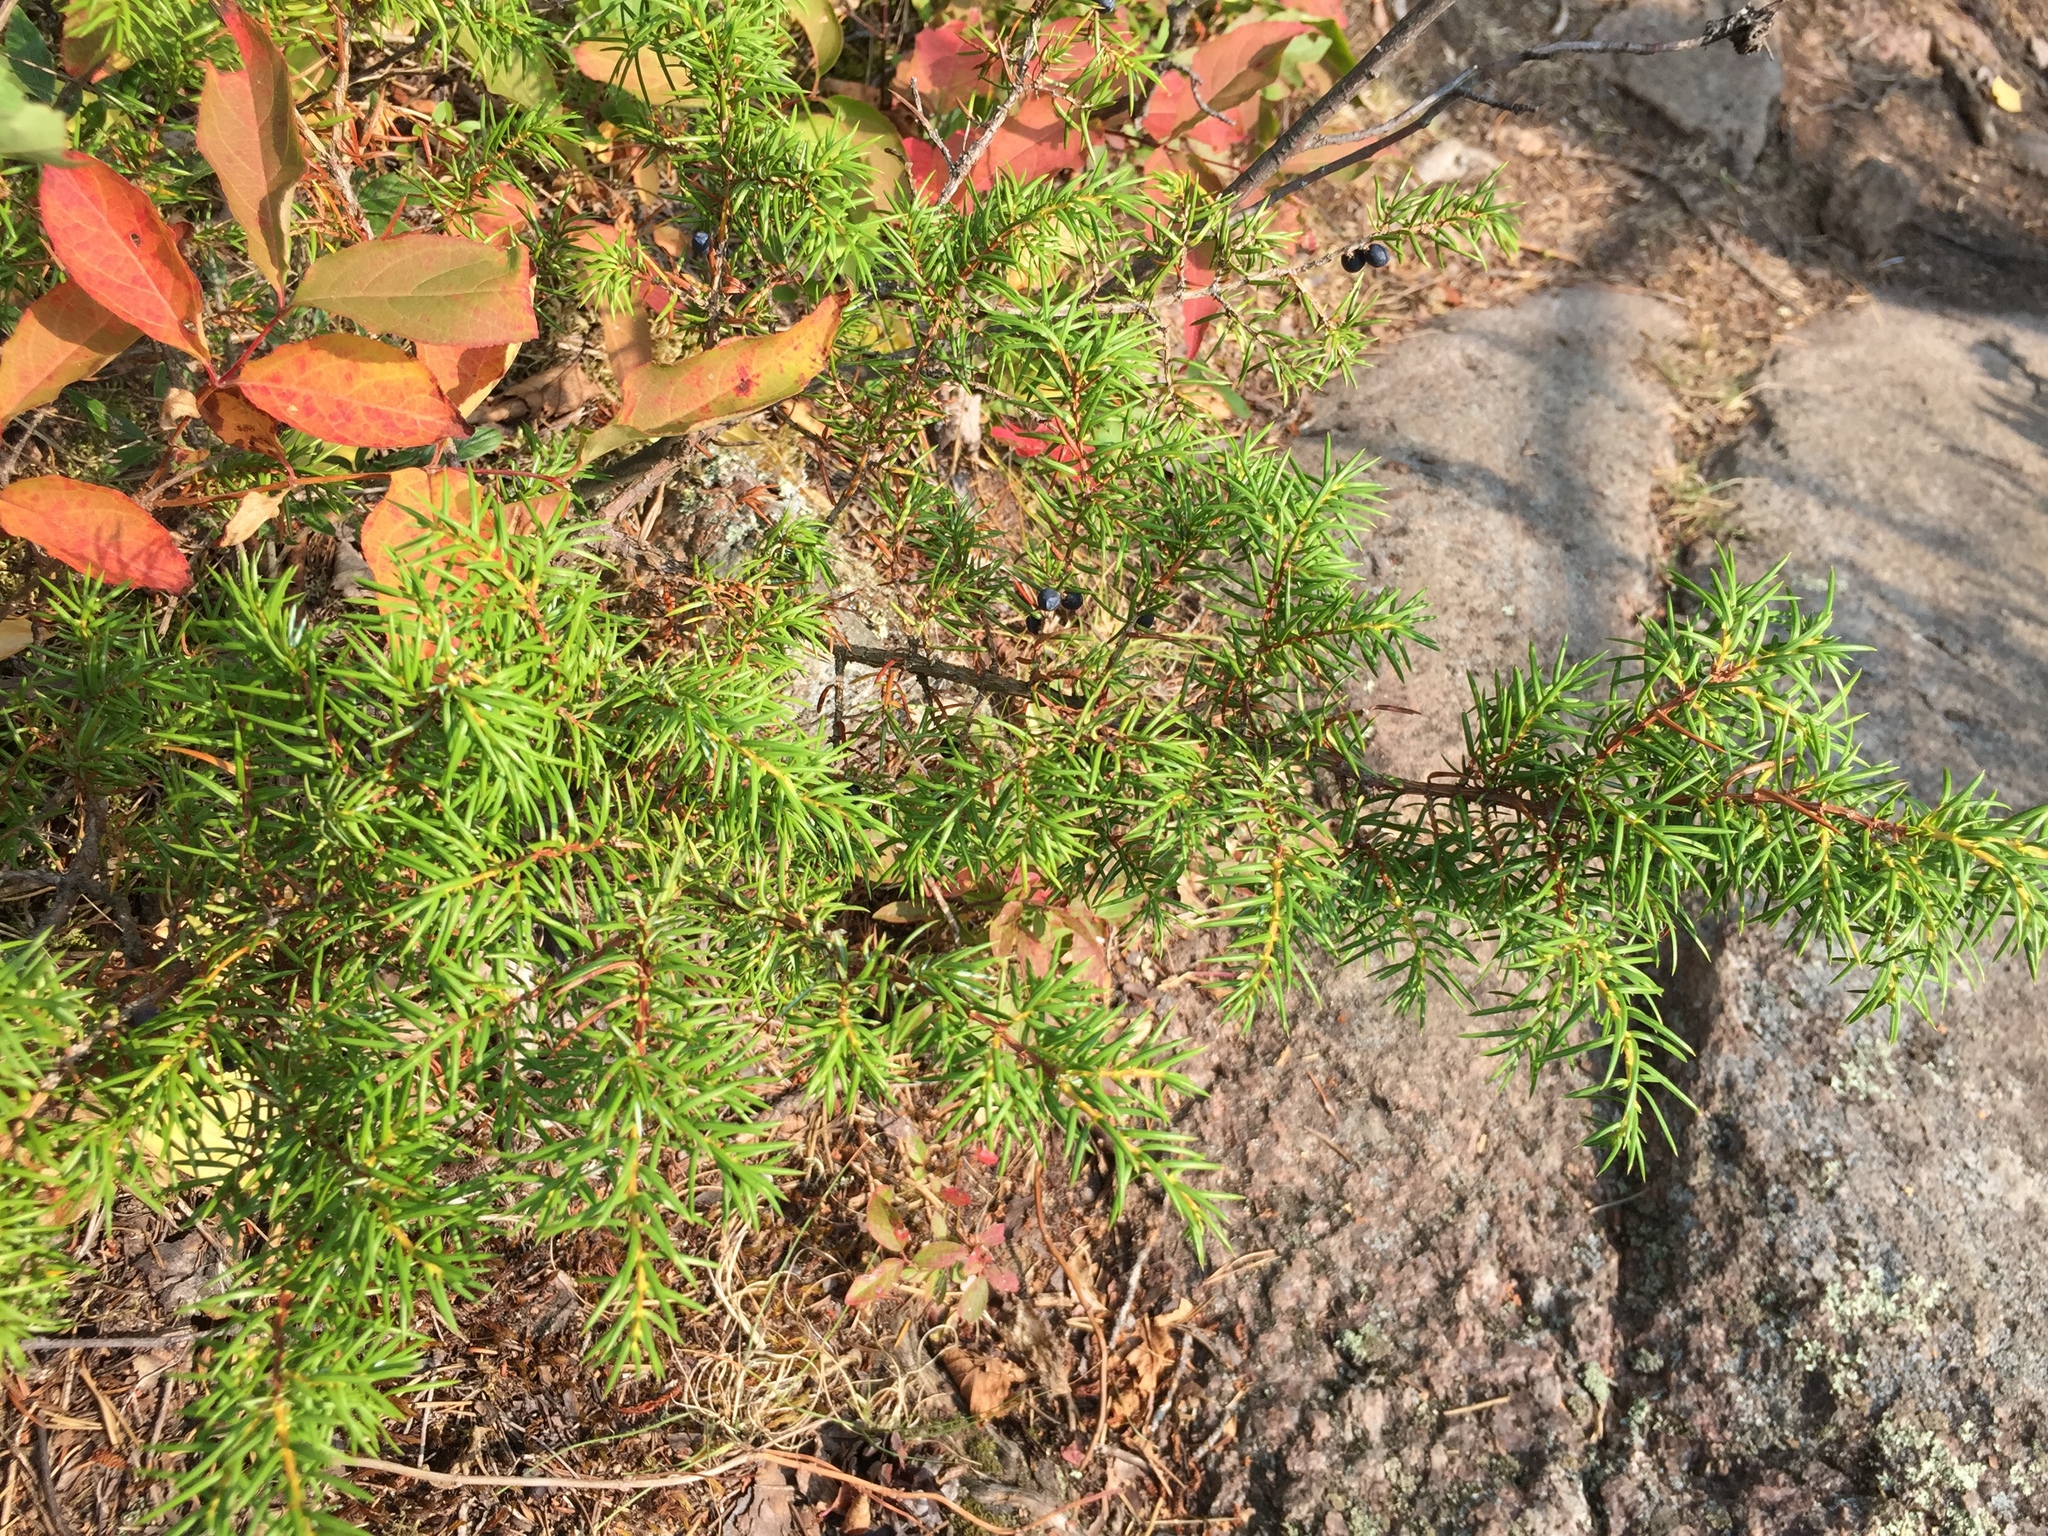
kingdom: Plantae
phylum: Tracheophyta
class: Pinopsida
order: Pinales
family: Cupressaceae
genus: Juniperus
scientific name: Juniperus communis
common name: Common juniper
